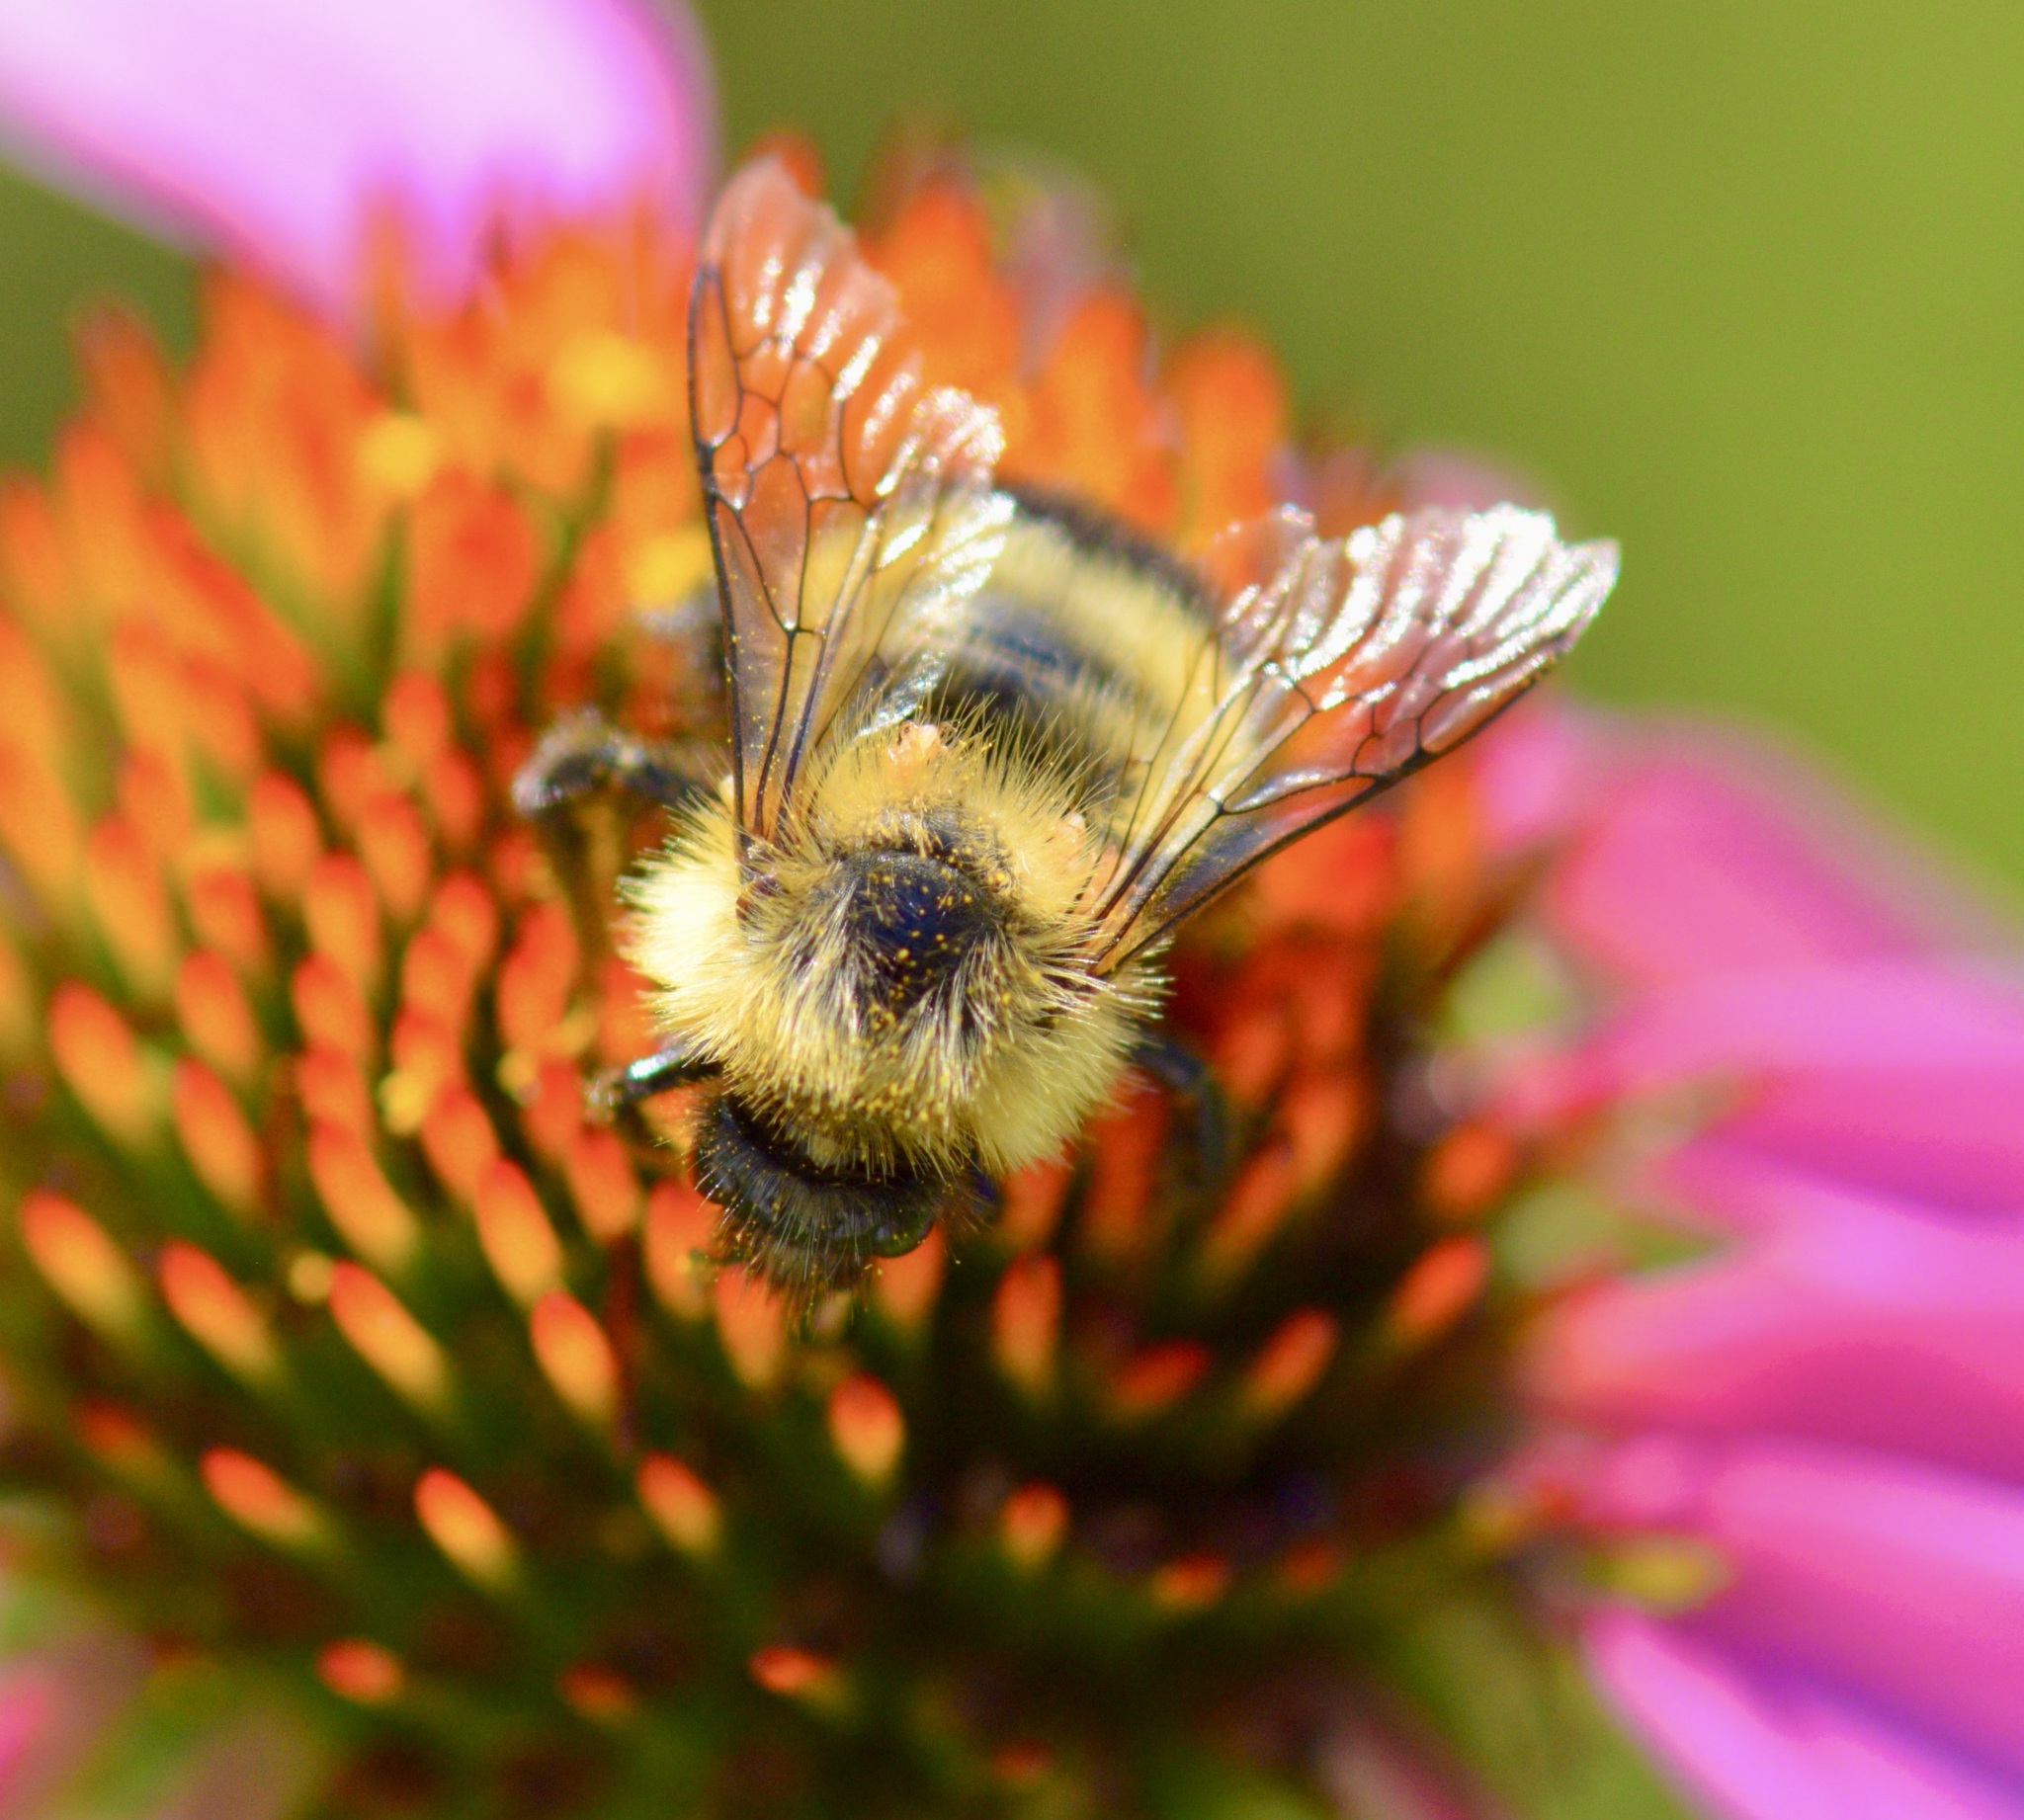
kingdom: Animalia
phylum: Arthropoda
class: Insecta
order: Hymenoptera
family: Apidae
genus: Pyrobombus
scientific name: Pyrobombus
